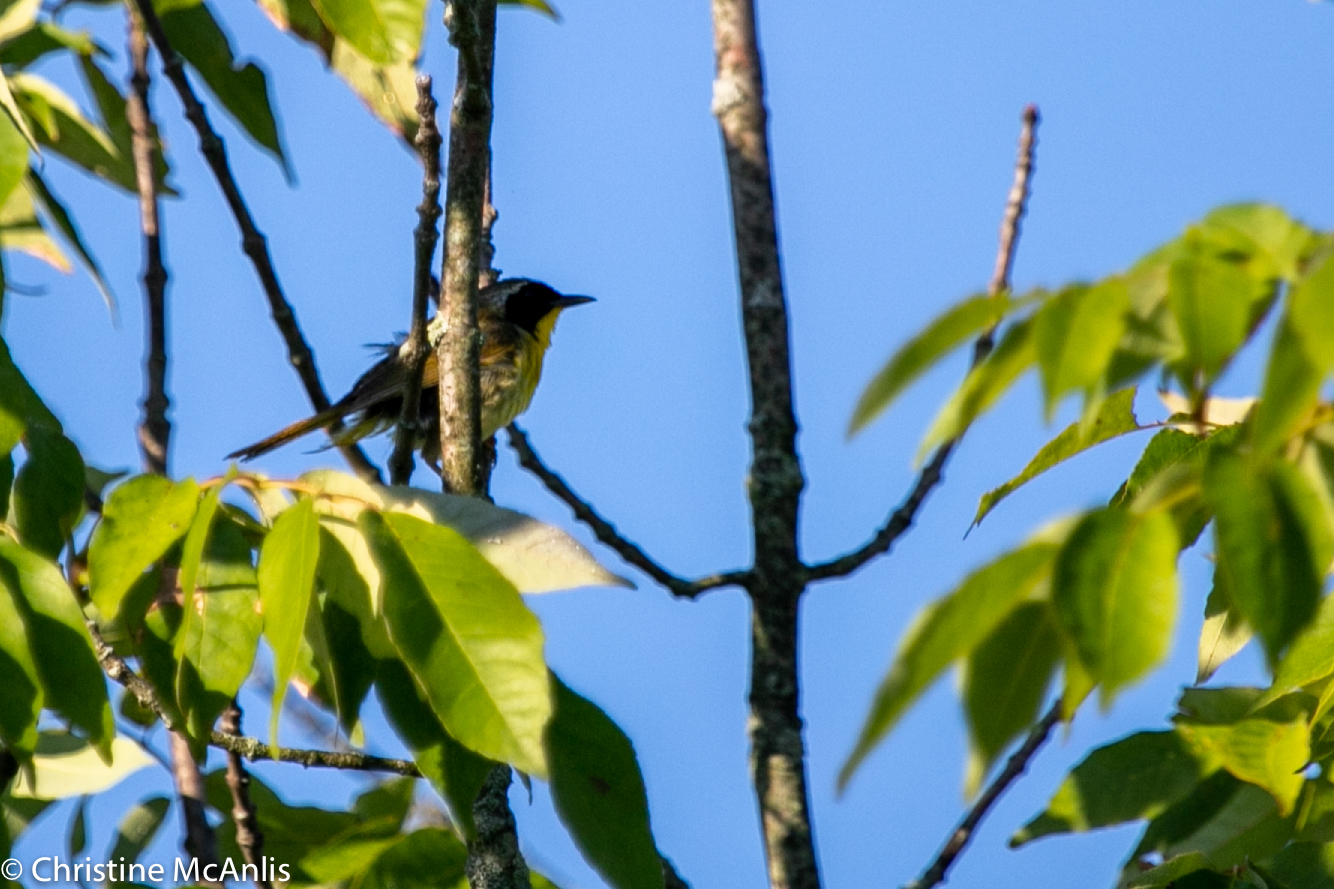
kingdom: Animalia
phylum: Chordata
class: Aves
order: Passeriformes
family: Parulidae
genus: Geothlypis
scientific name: Geothlypis trichas
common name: Common yellowthroat
